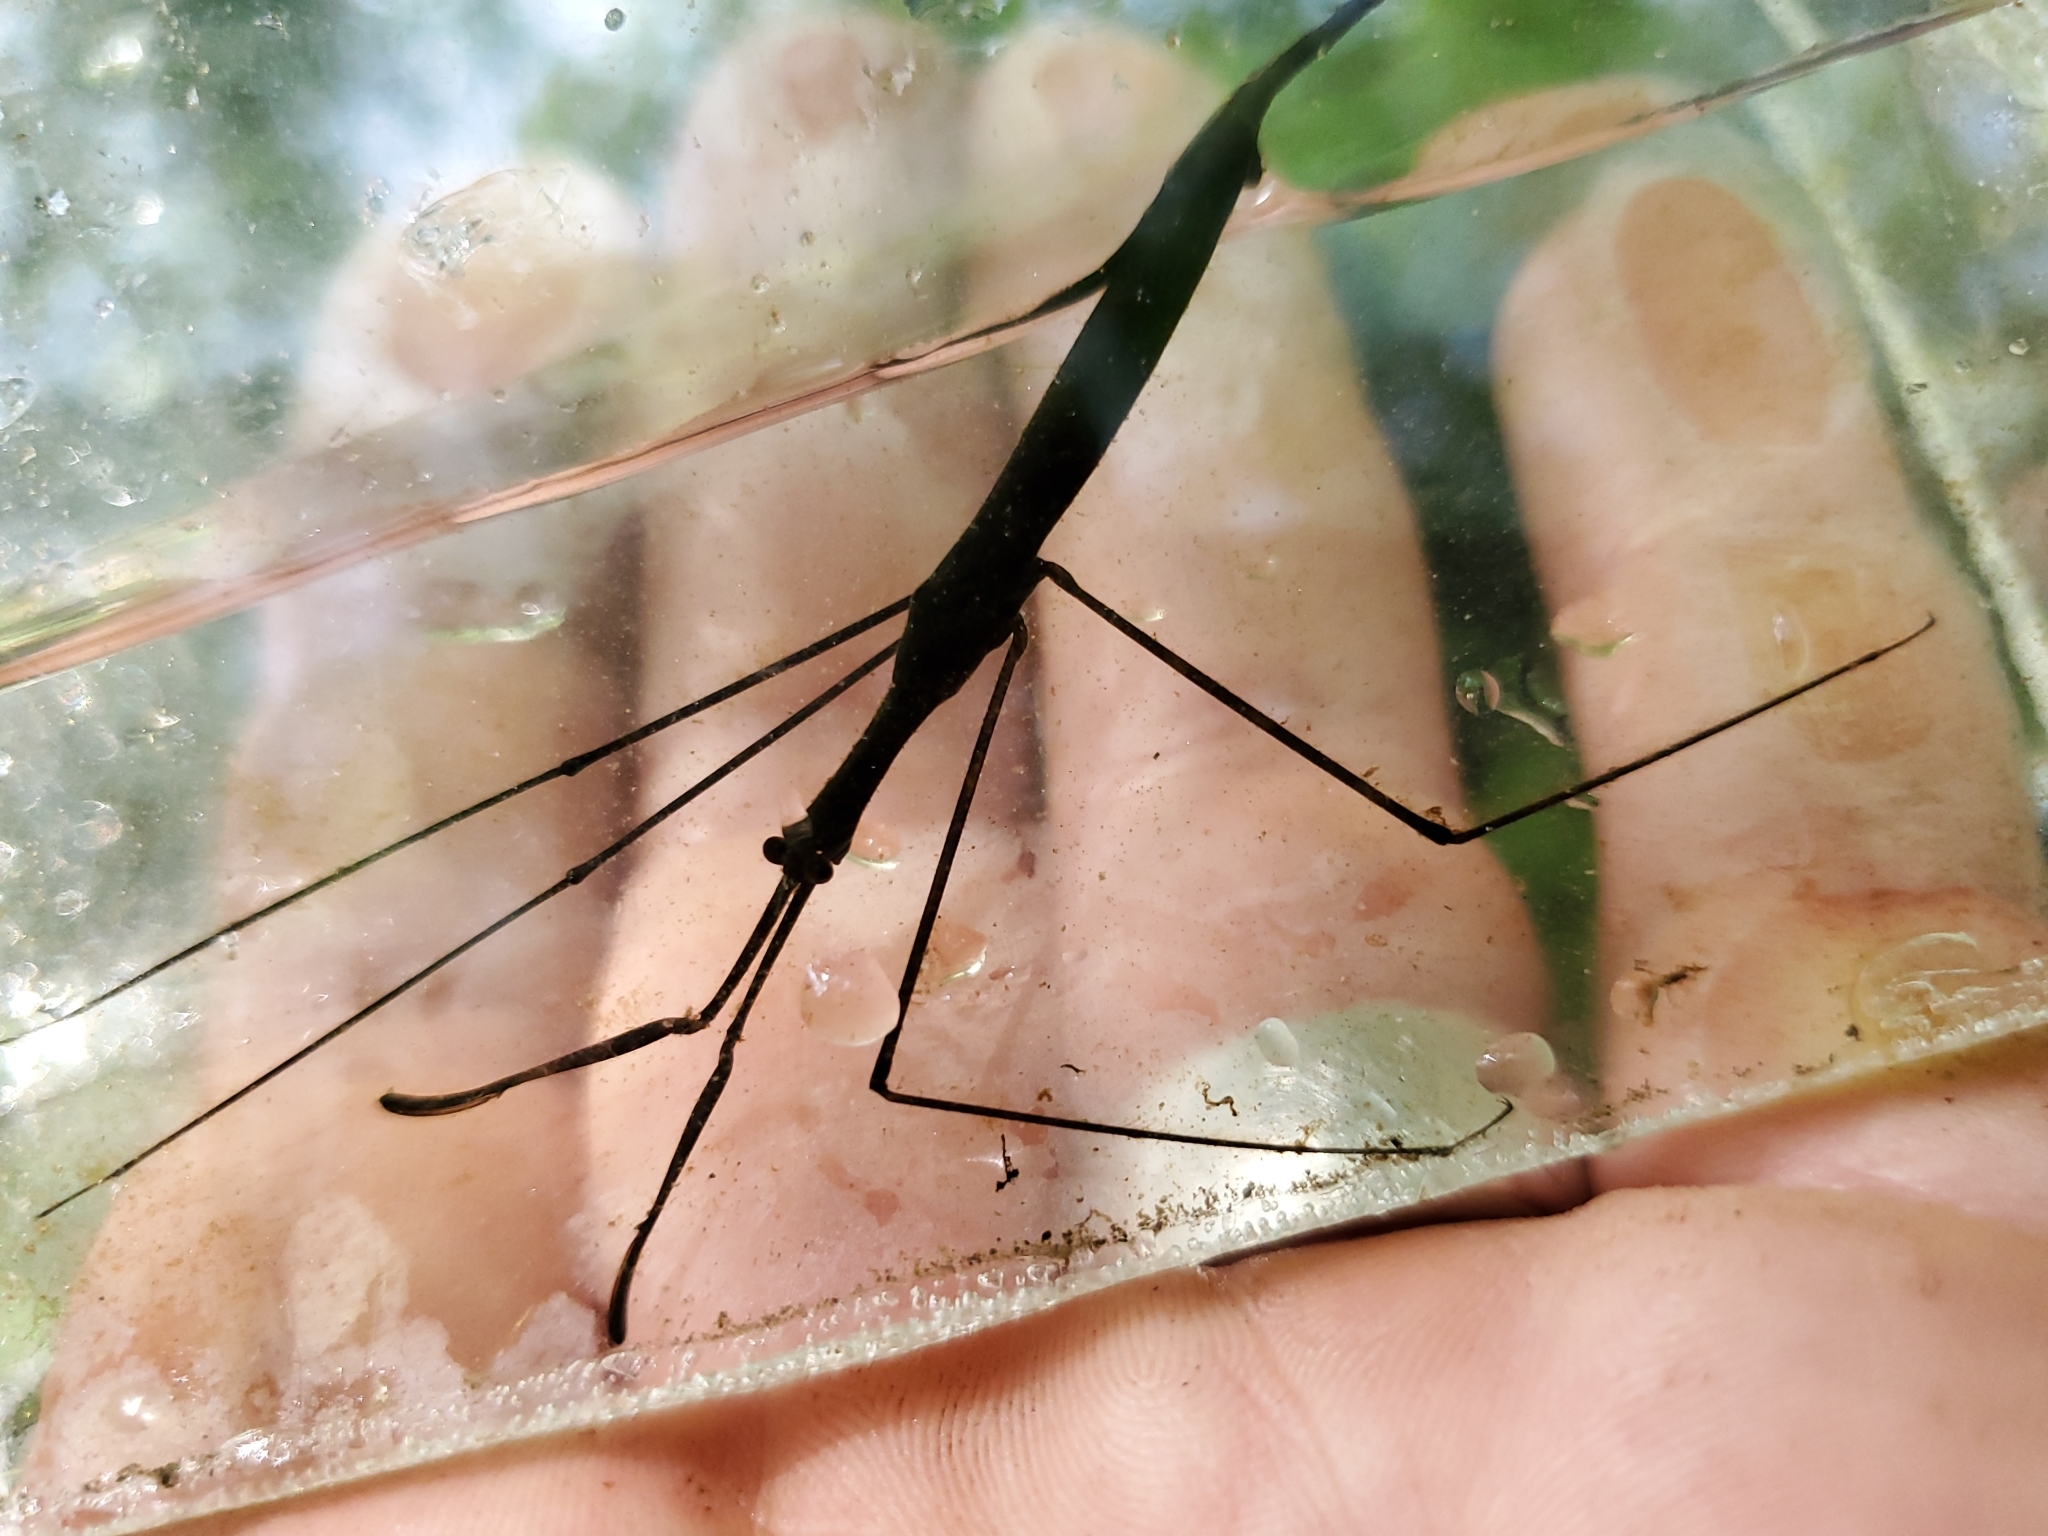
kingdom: Animalia
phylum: Arthropoda
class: Insecta
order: Hemiptera
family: Nepidae
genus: Ranatra
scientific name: Ranatra
